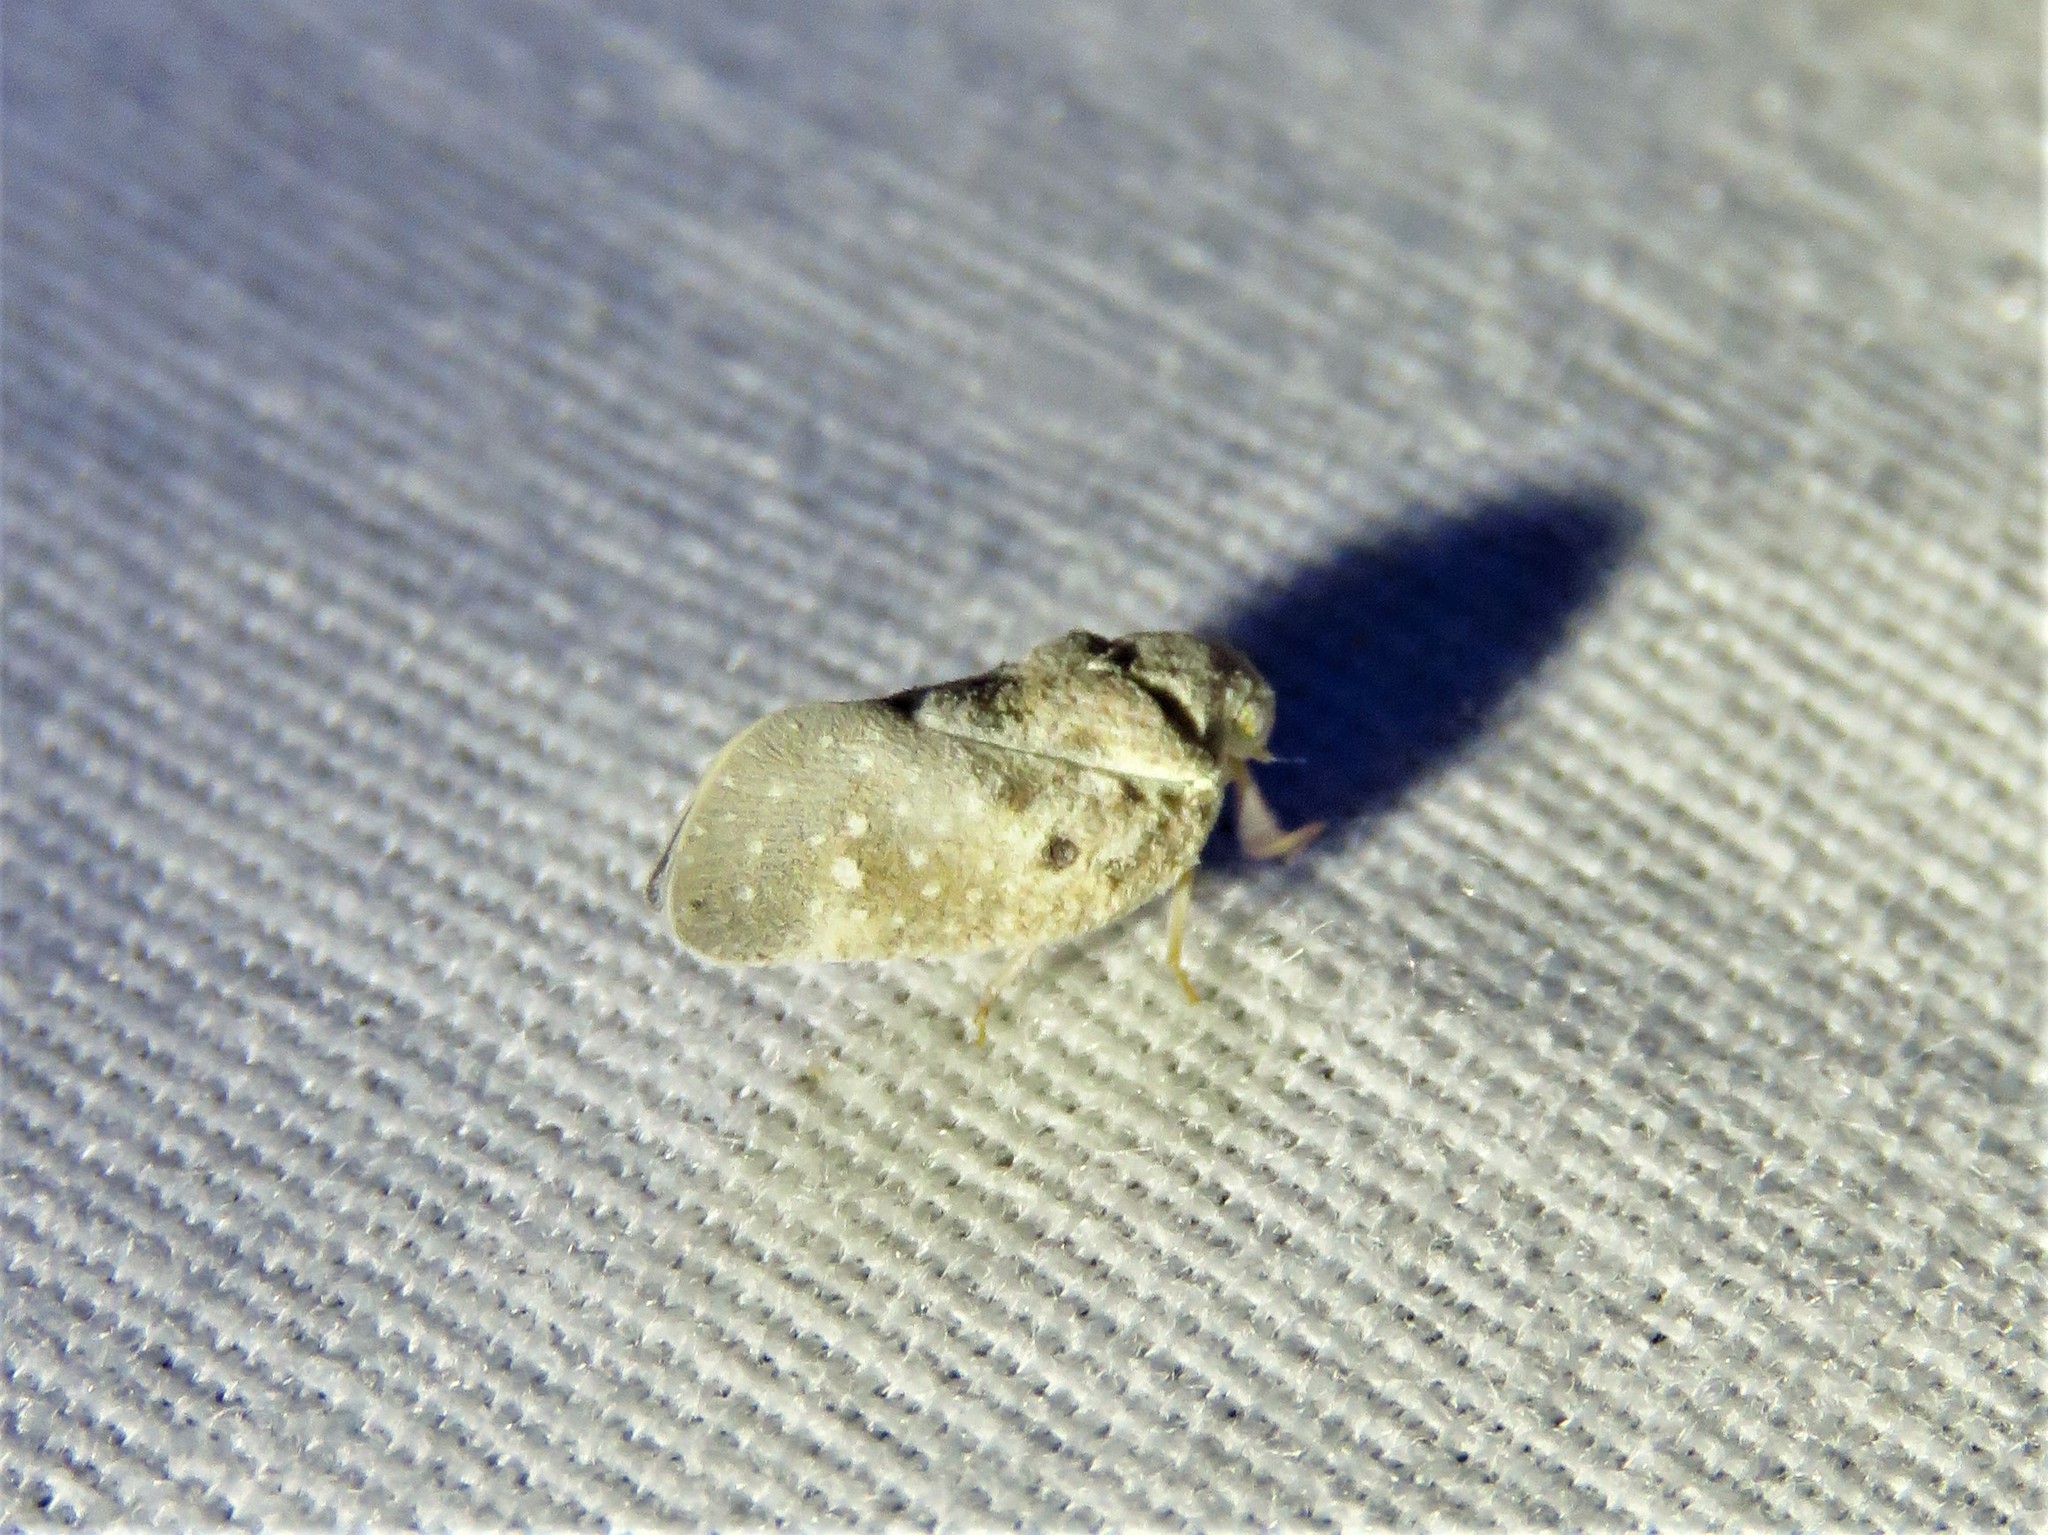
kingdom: Animalia
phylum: Arthropoda
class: Insecta
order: Hemiptera
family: Flatidae
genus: Metcalfa
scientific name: Metcalfa pruinosa
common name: Citrus flatid planthopper
